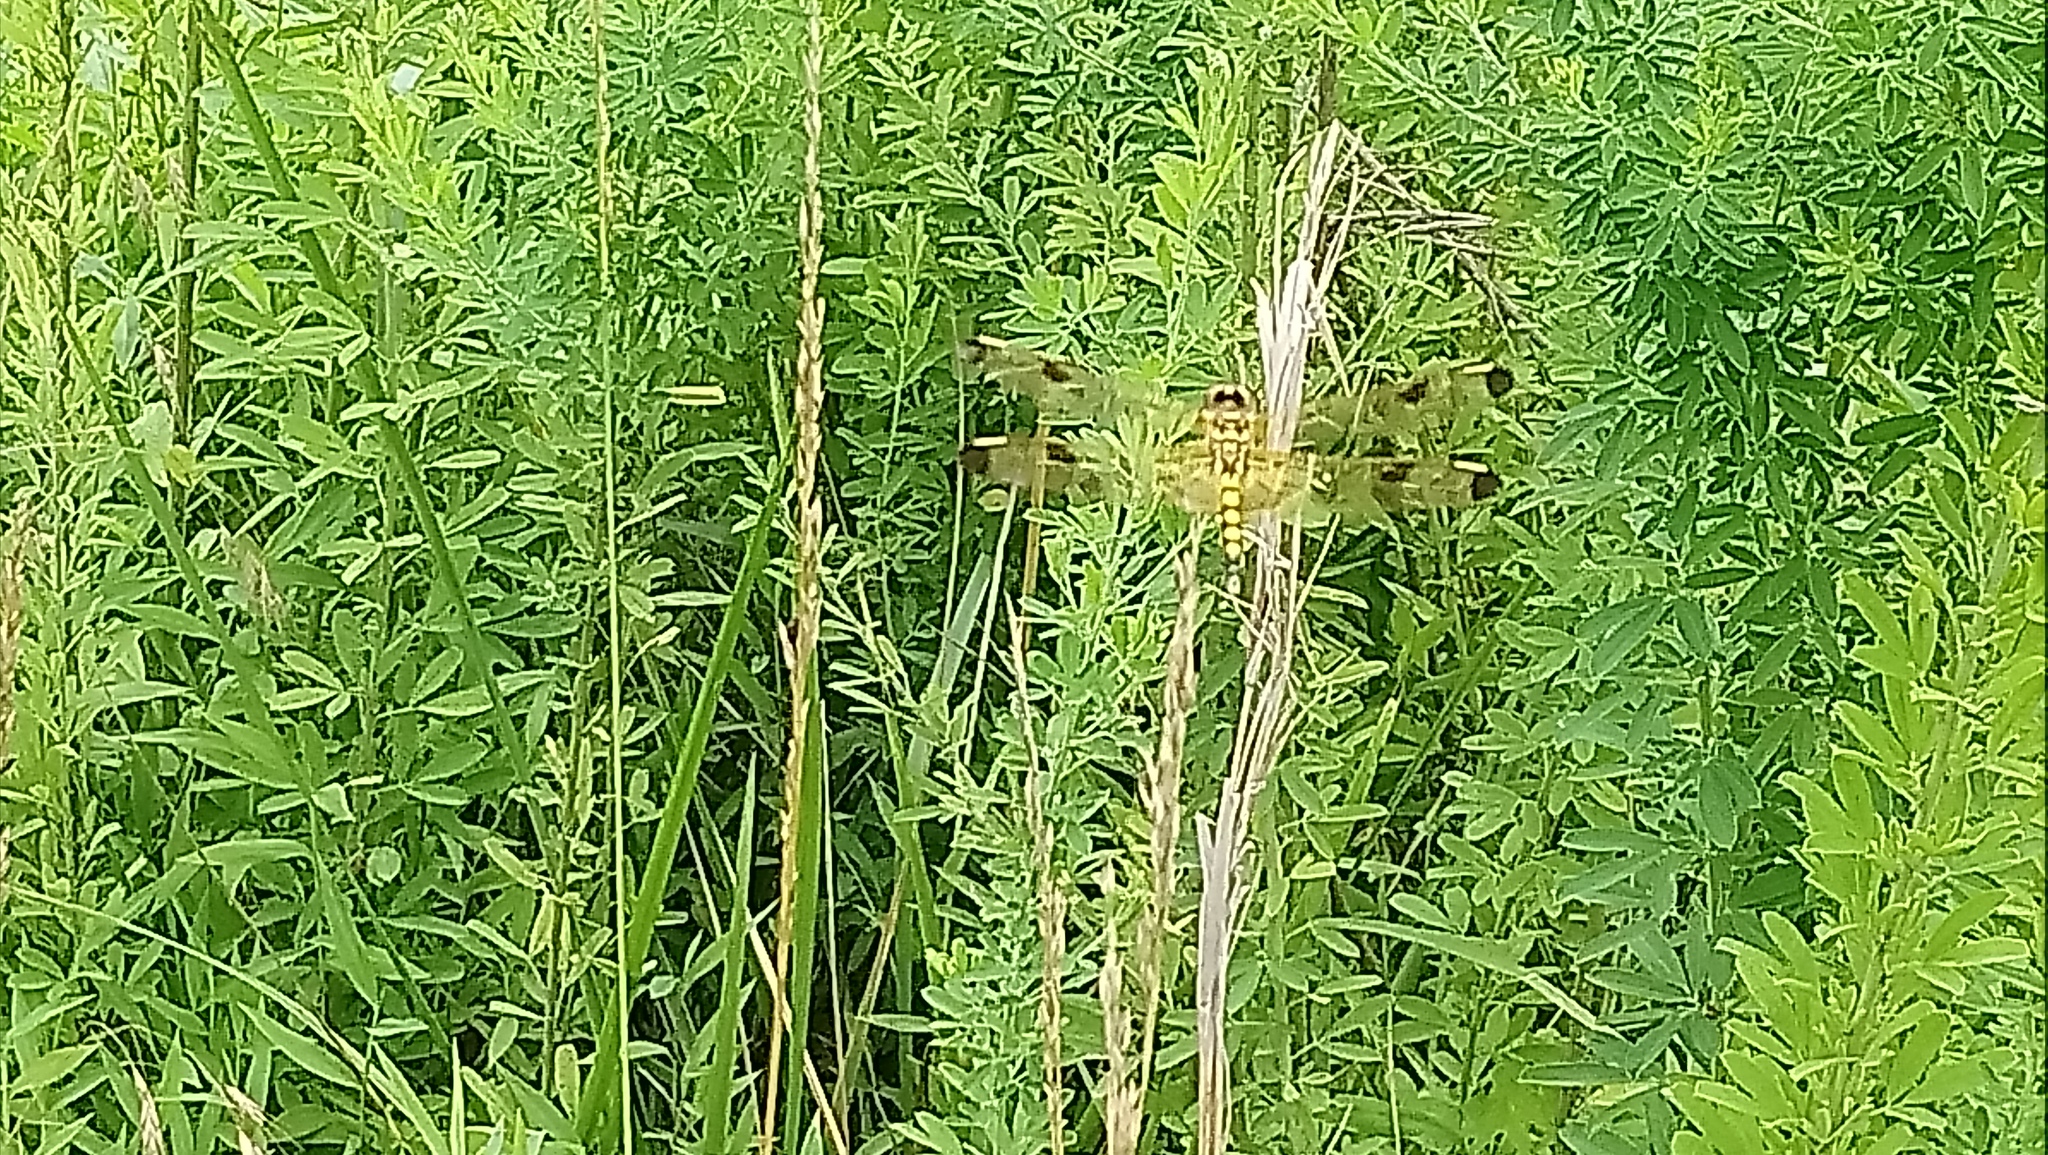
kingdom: Animalia
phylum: Arthropoda
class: Insecta
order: Odonata
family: Libellulidae
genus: Celithemis
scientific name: Celithemis elisa
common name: Calico pennant
